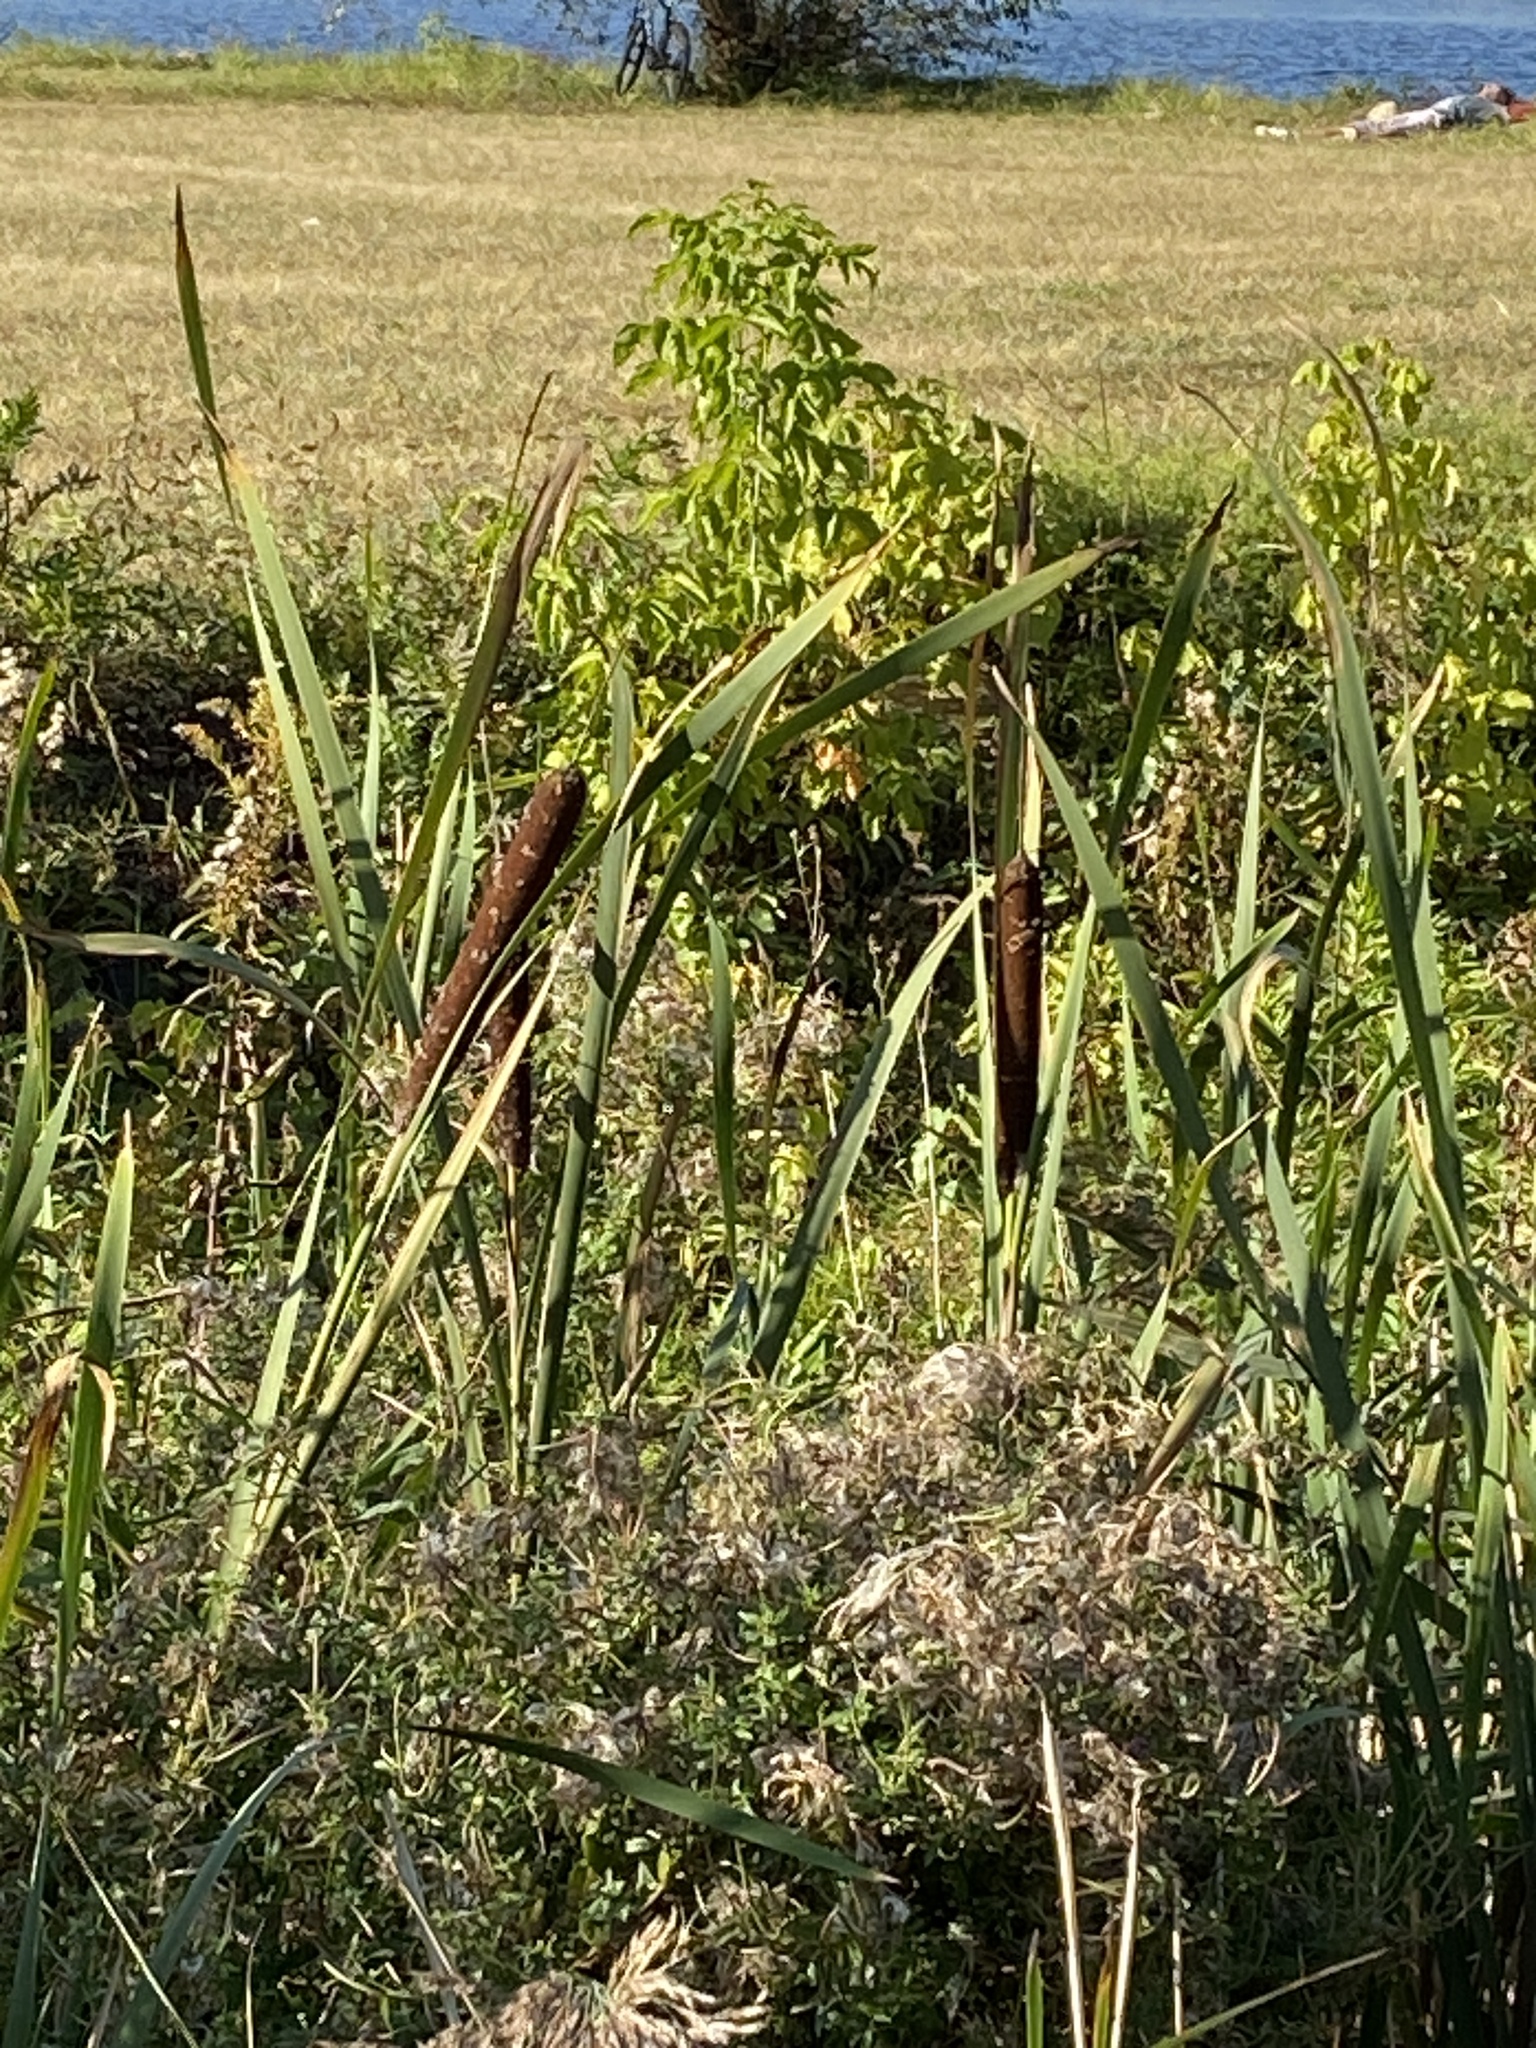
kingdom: Plantae
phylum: Tracheophyta
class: Liliopsida
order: Poales
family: Typhaceae
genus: Typha
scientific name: Typha latifolia
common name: Broadleaf cattail
